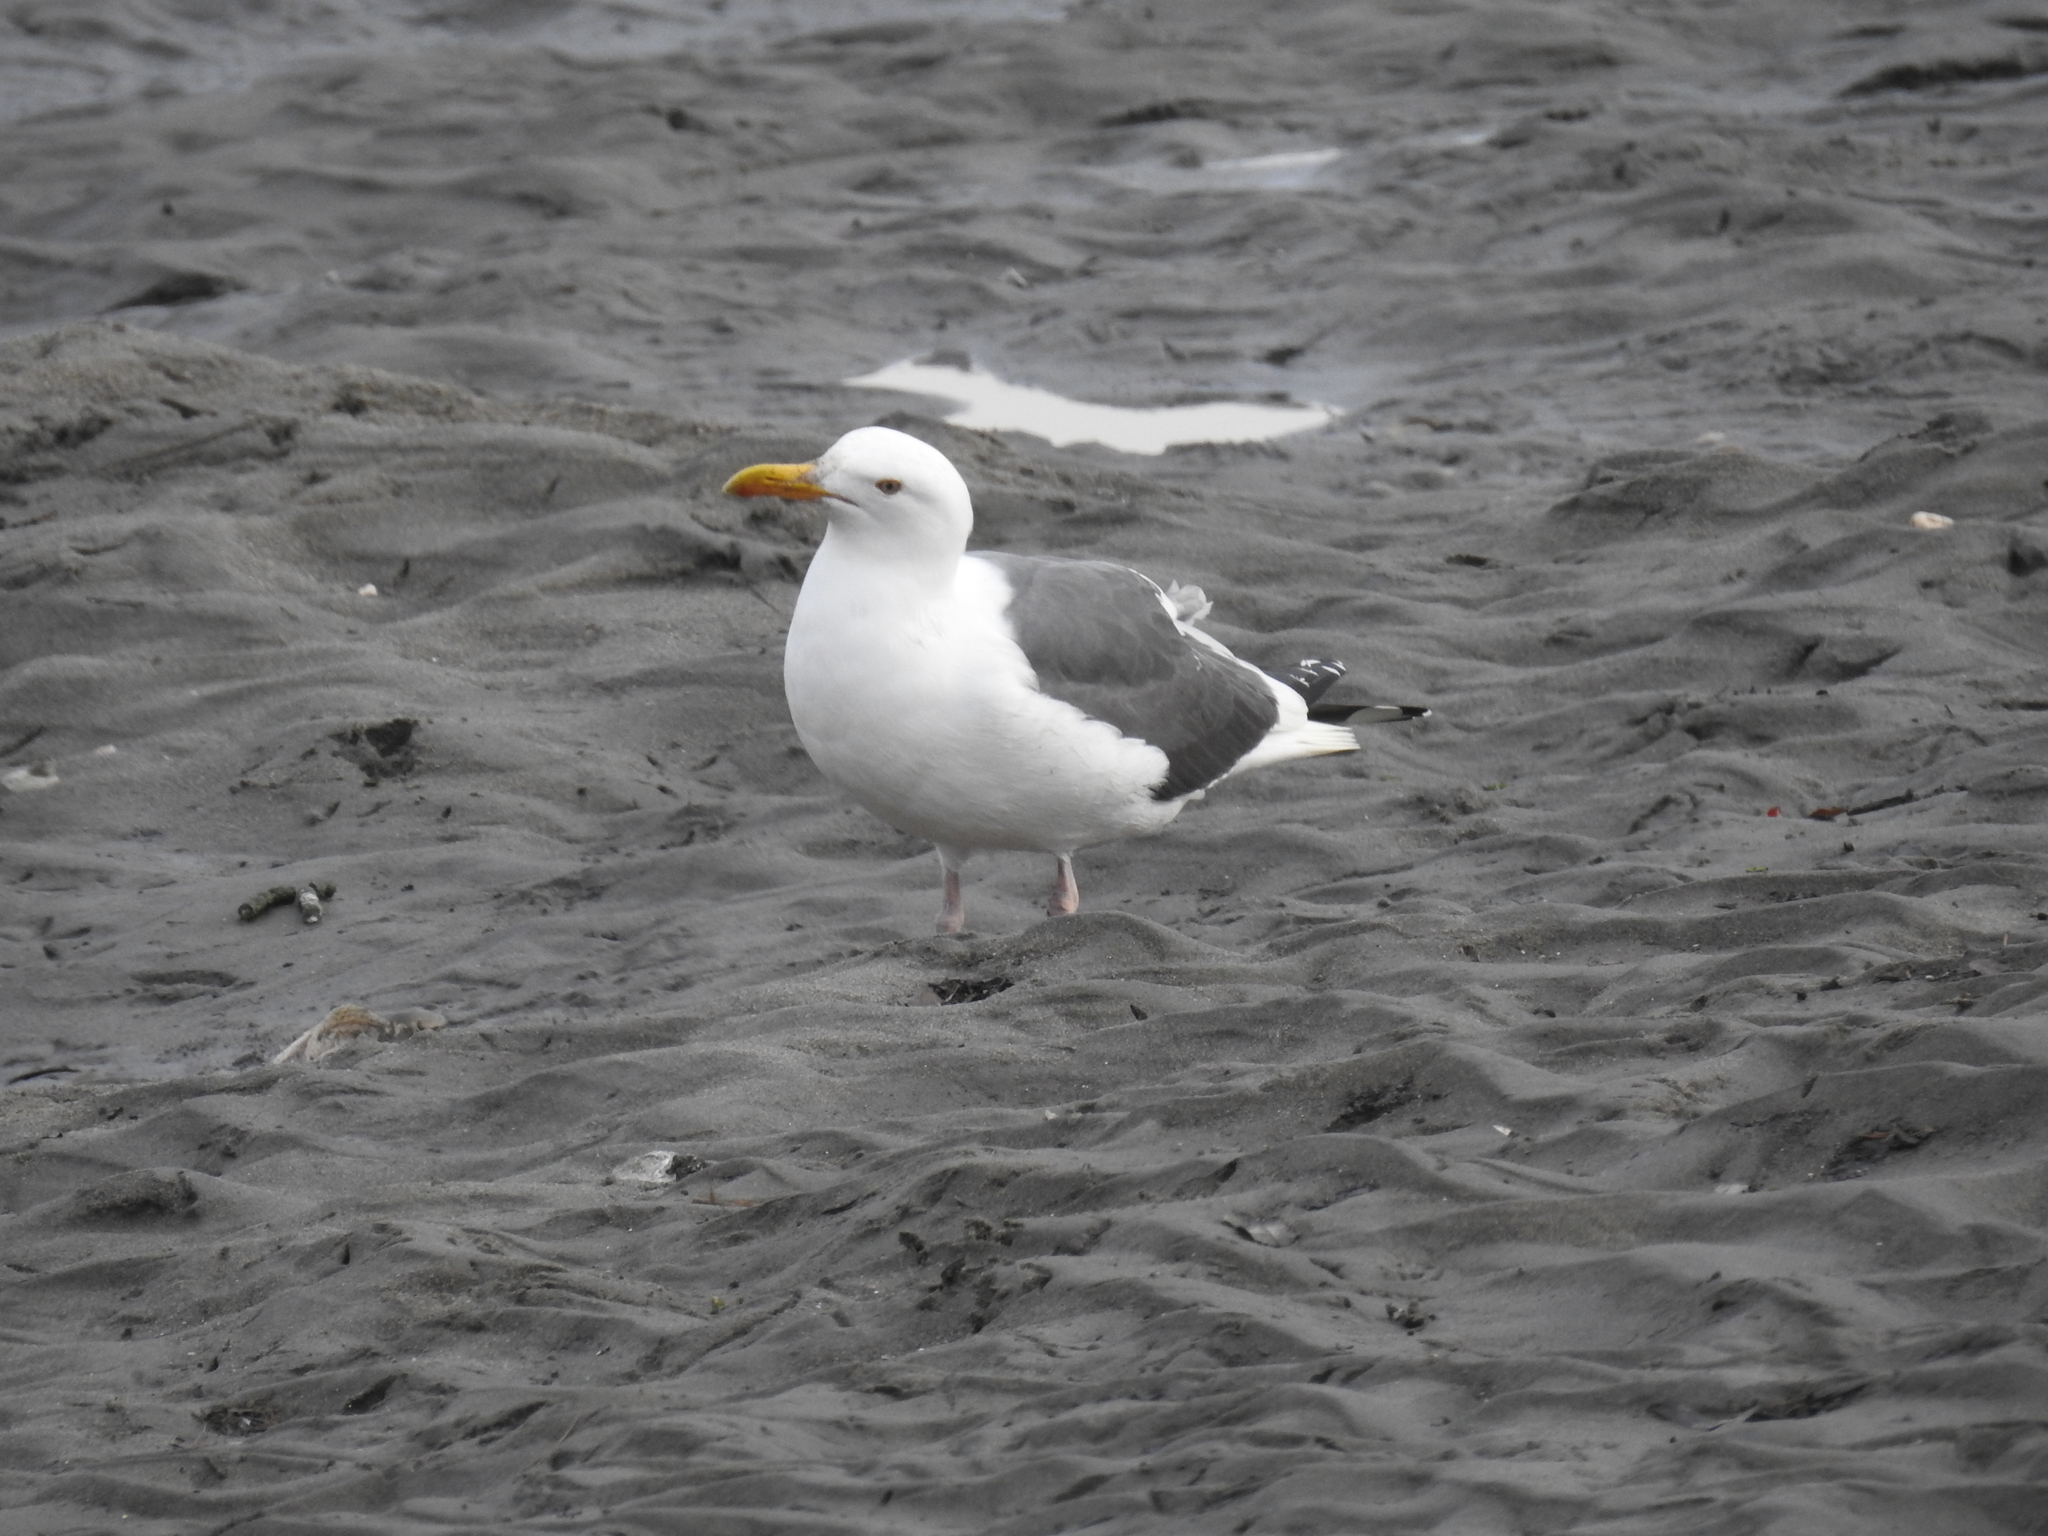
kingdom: Animalia
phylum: Chordata
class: Aves
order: Charadriiformes
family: Laridae
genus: Larus
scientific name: Larus occidentalis
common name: Western gull
